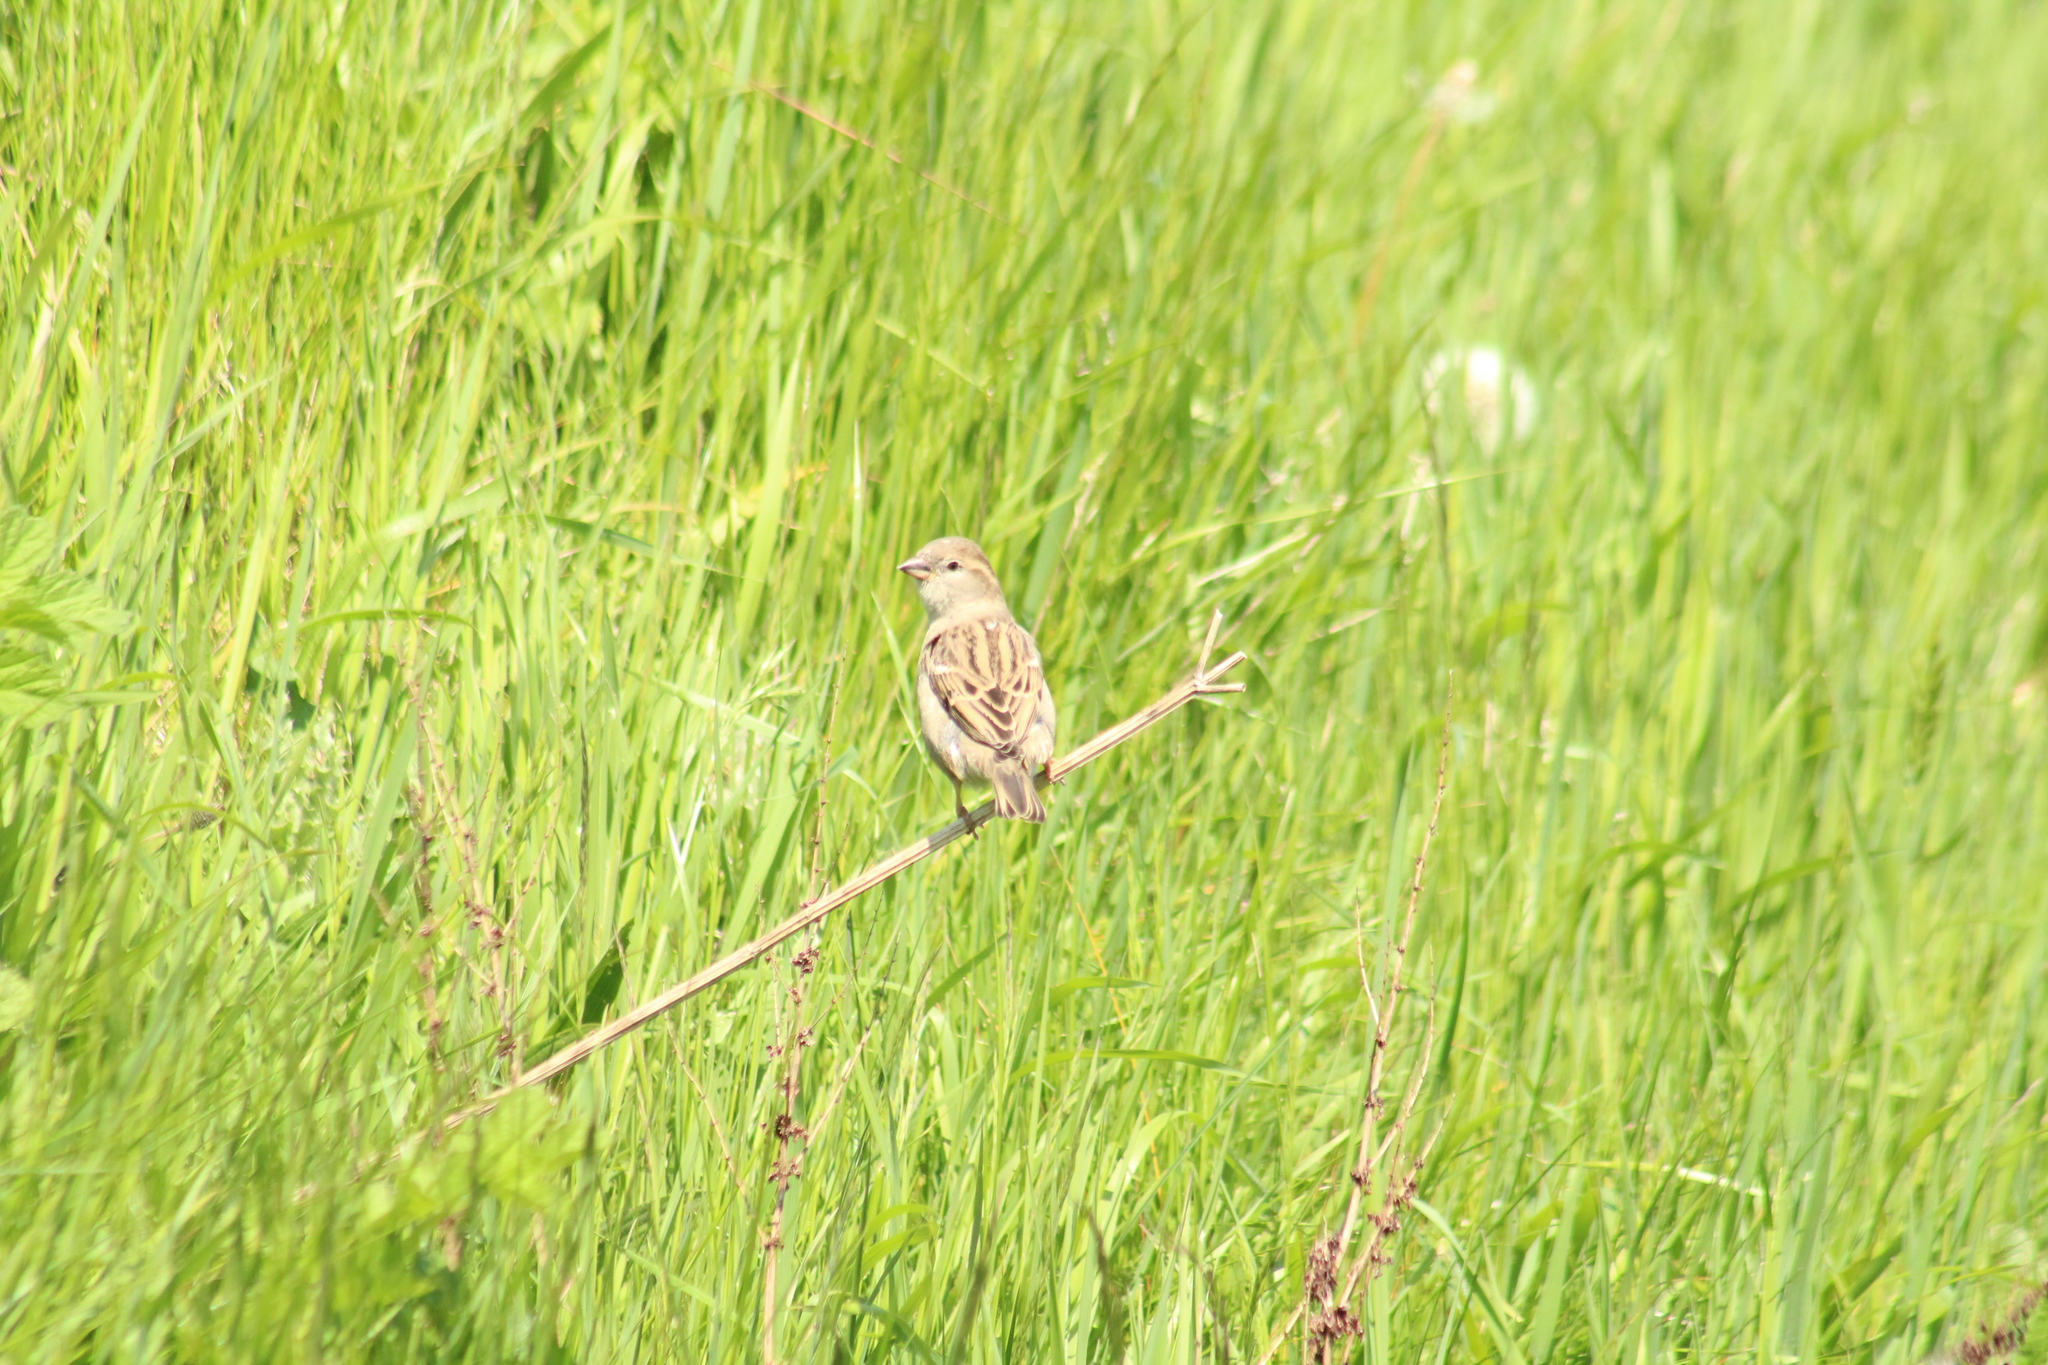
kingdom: Animalia
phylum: Chordata
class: Aves
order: Passeriformes
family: Passeridae
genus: Passer
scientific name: Passer domesticus
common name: House sparrow
